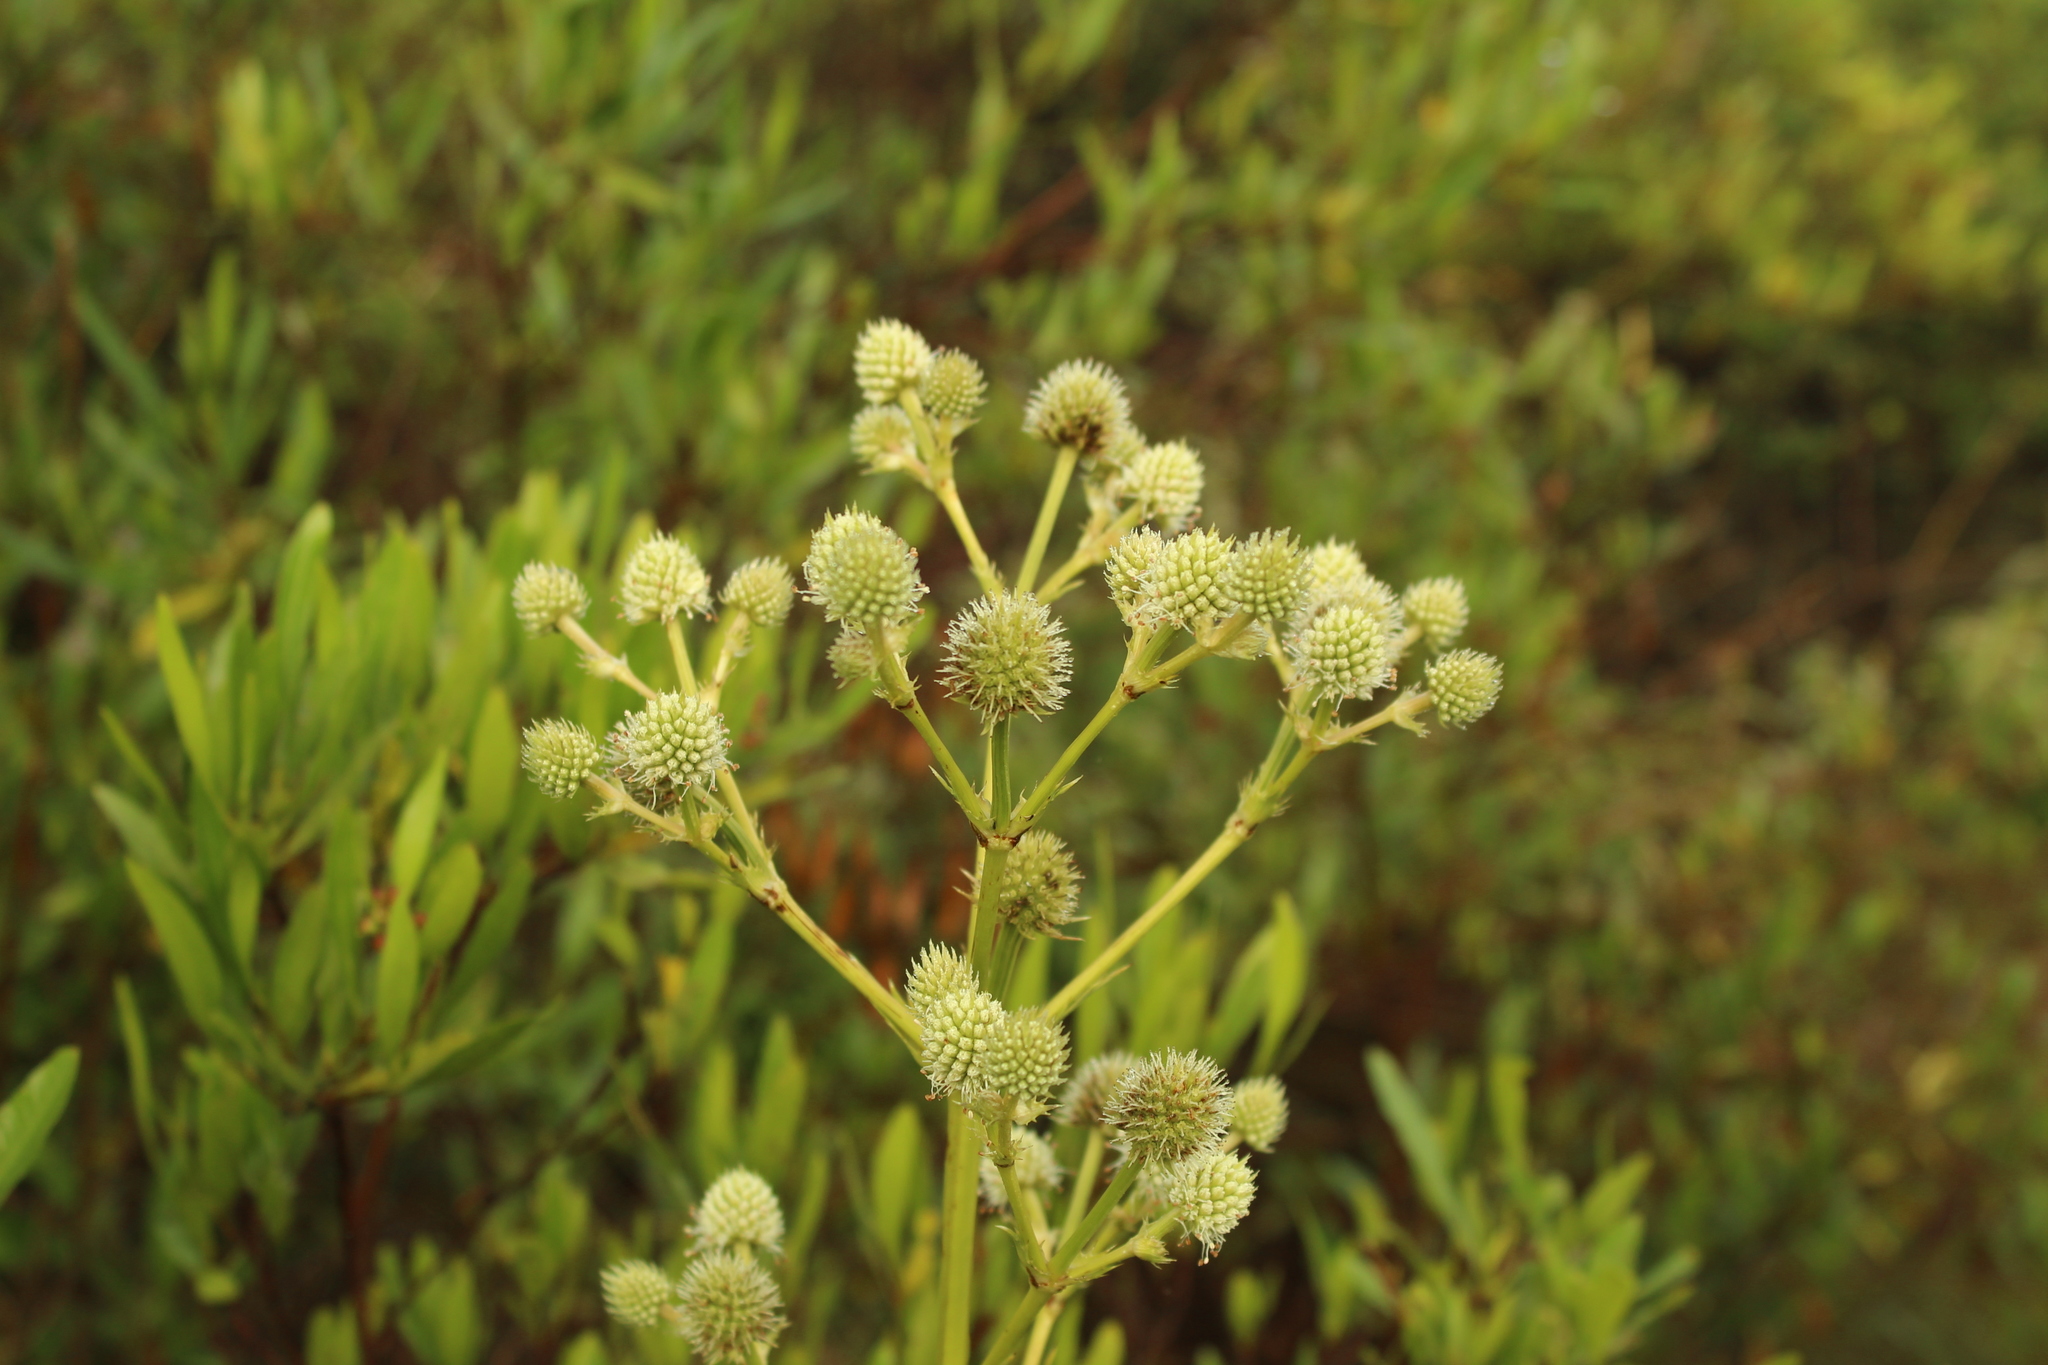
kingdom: Plantae
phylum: Tracheophyta
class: Magnoliopsida
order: Apiales
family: Apiaceae
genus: Eryngium
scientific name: Eryngium humboldtii
